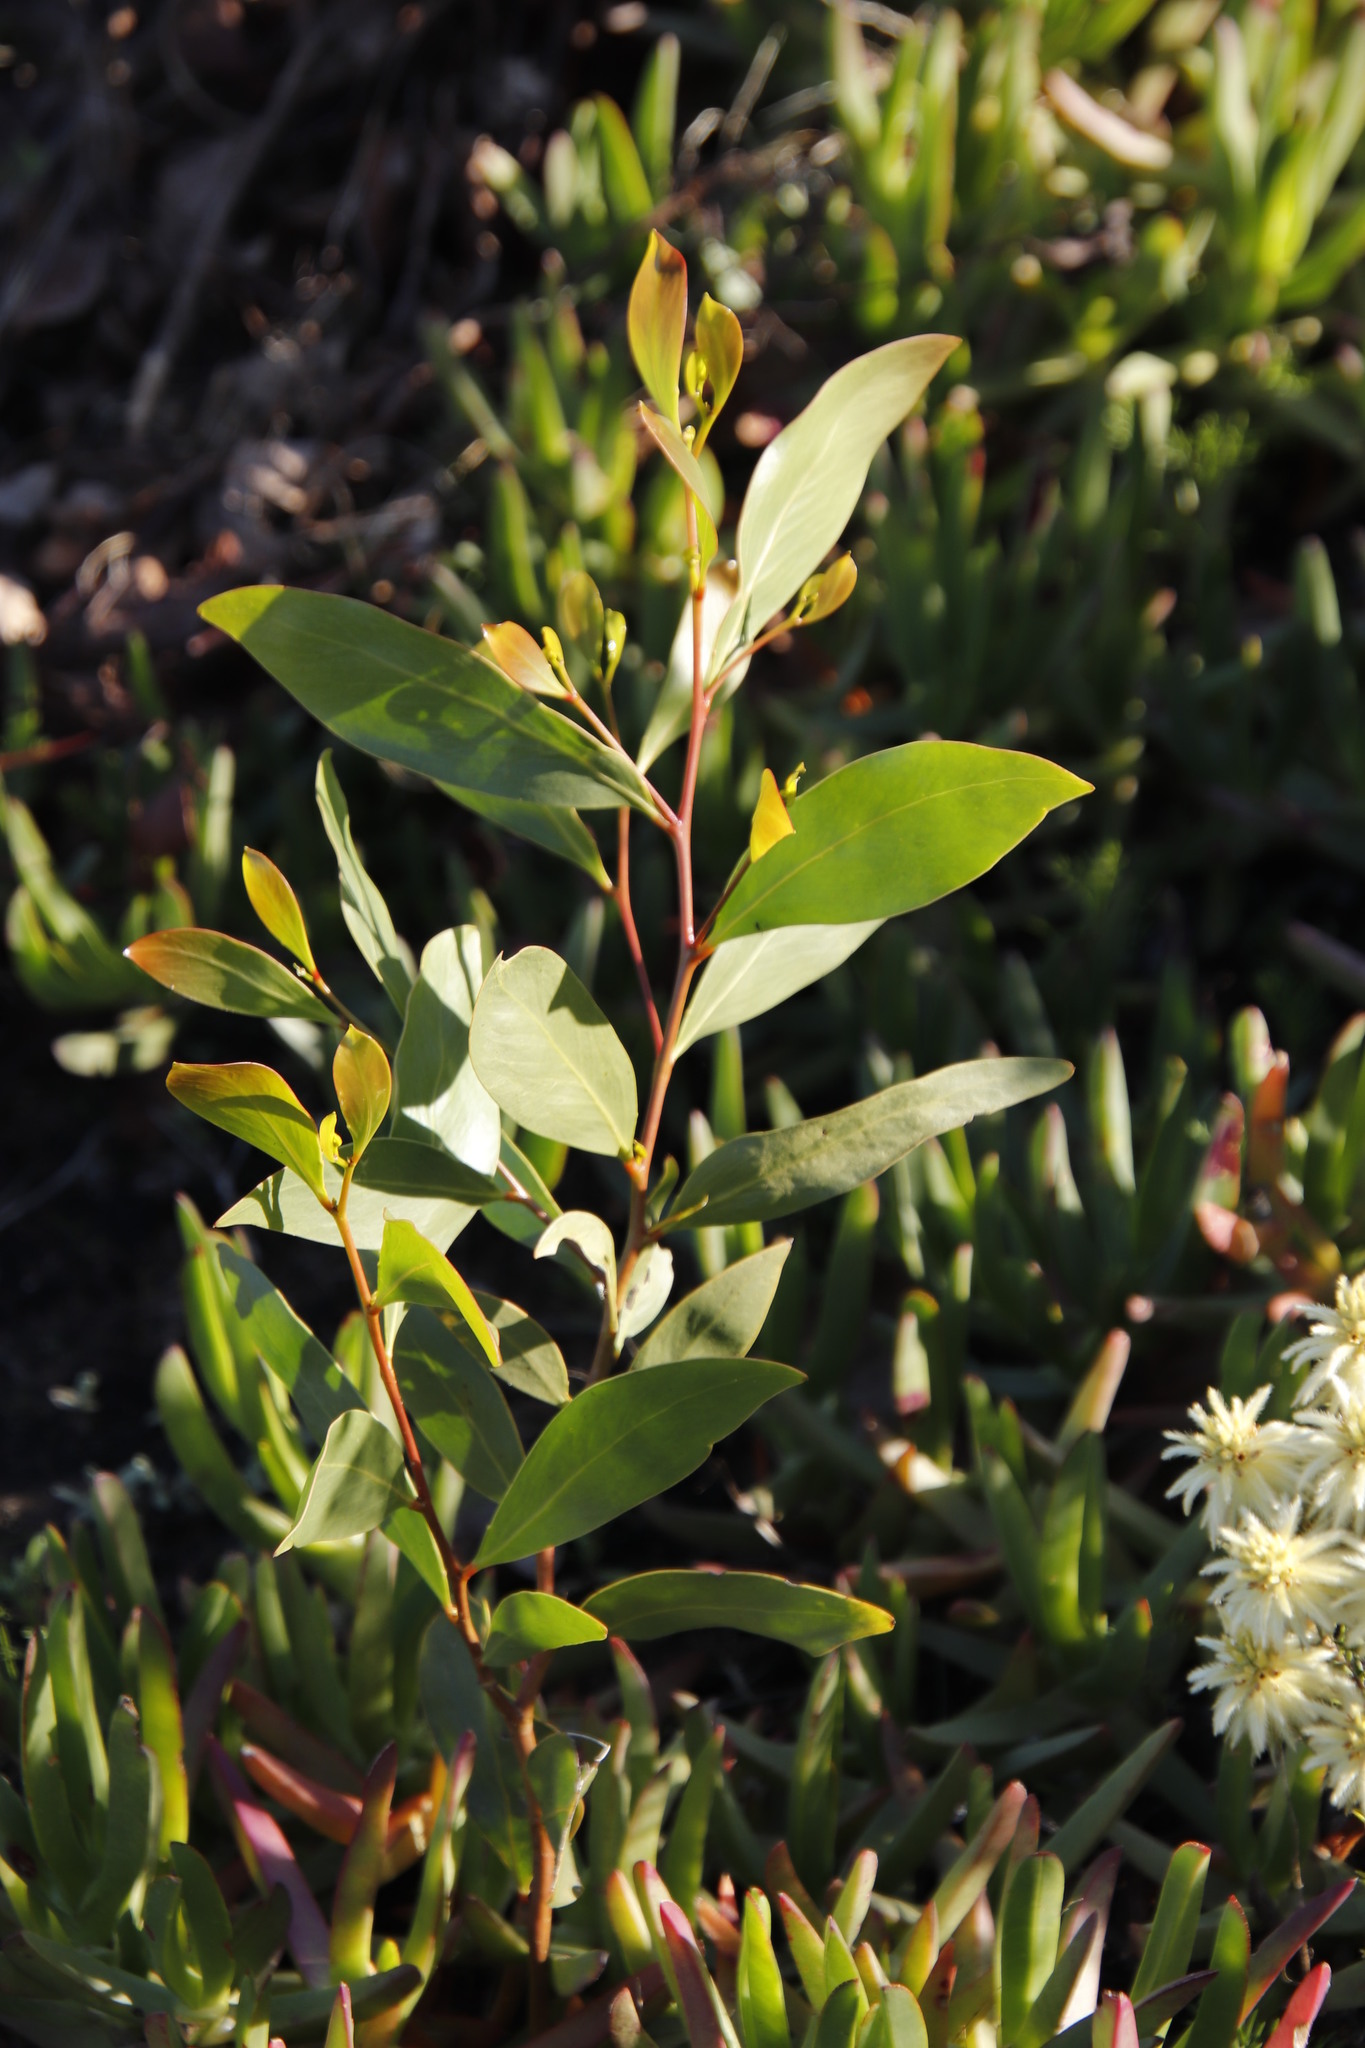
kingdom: Plantae
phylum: Tracheophyta
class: Magnoliopsida
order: Fabales
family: Fabaceae
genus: Acacia
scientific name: Acacia pycnantha
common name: Golden wattle
